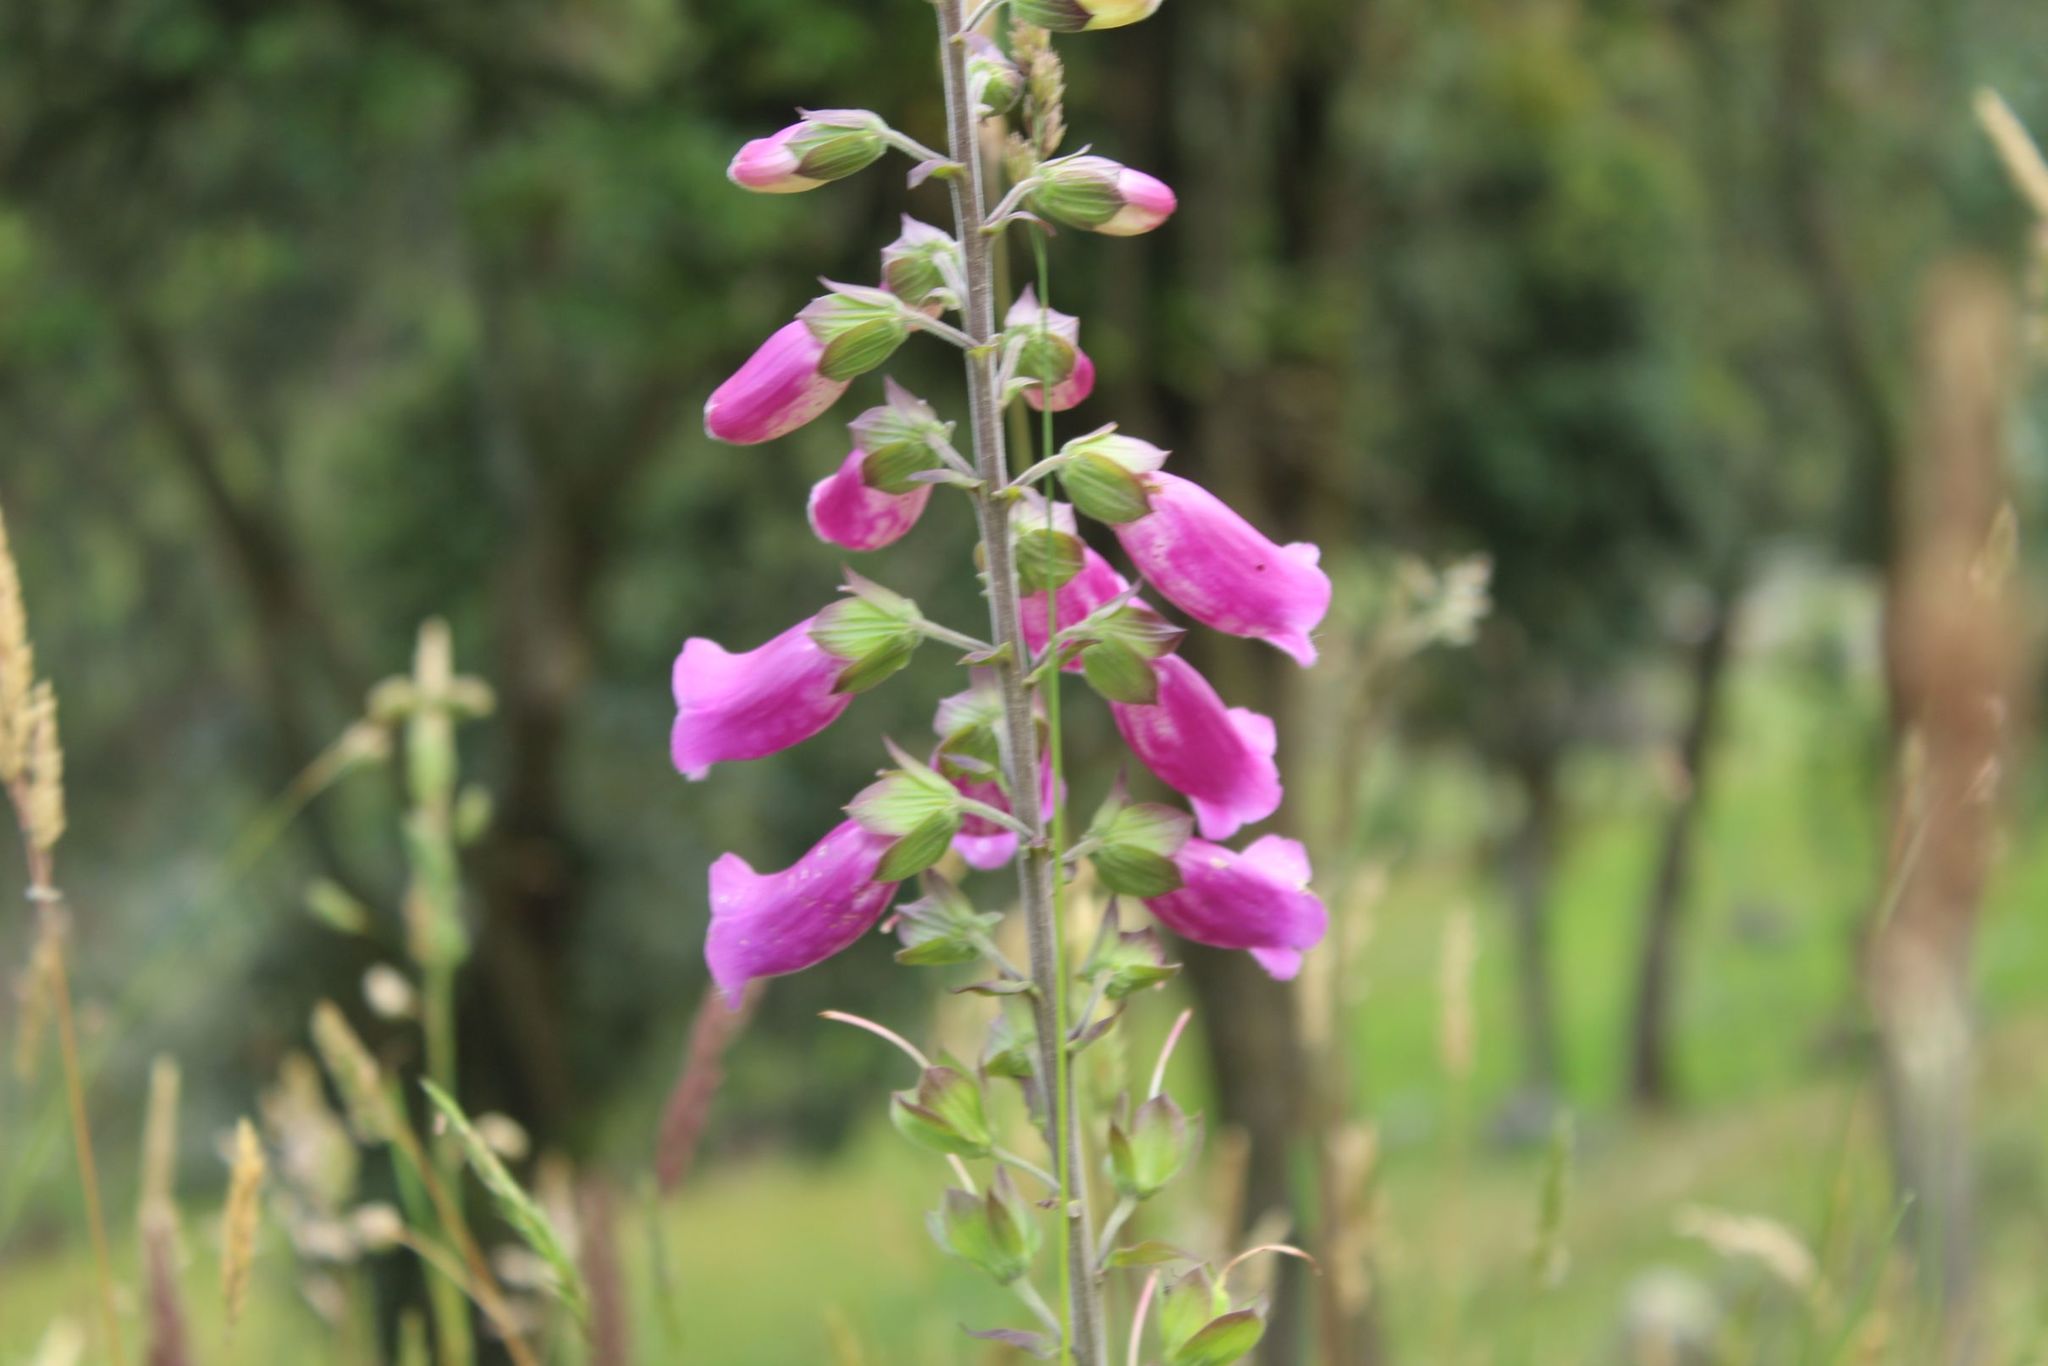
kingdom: Plantae
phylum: Tracheophyta
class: Magnoliopsida
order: Lamiales
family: Plantaginaceae
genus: Digitalis
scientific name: Digitalis purpurea
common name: Foxglove
